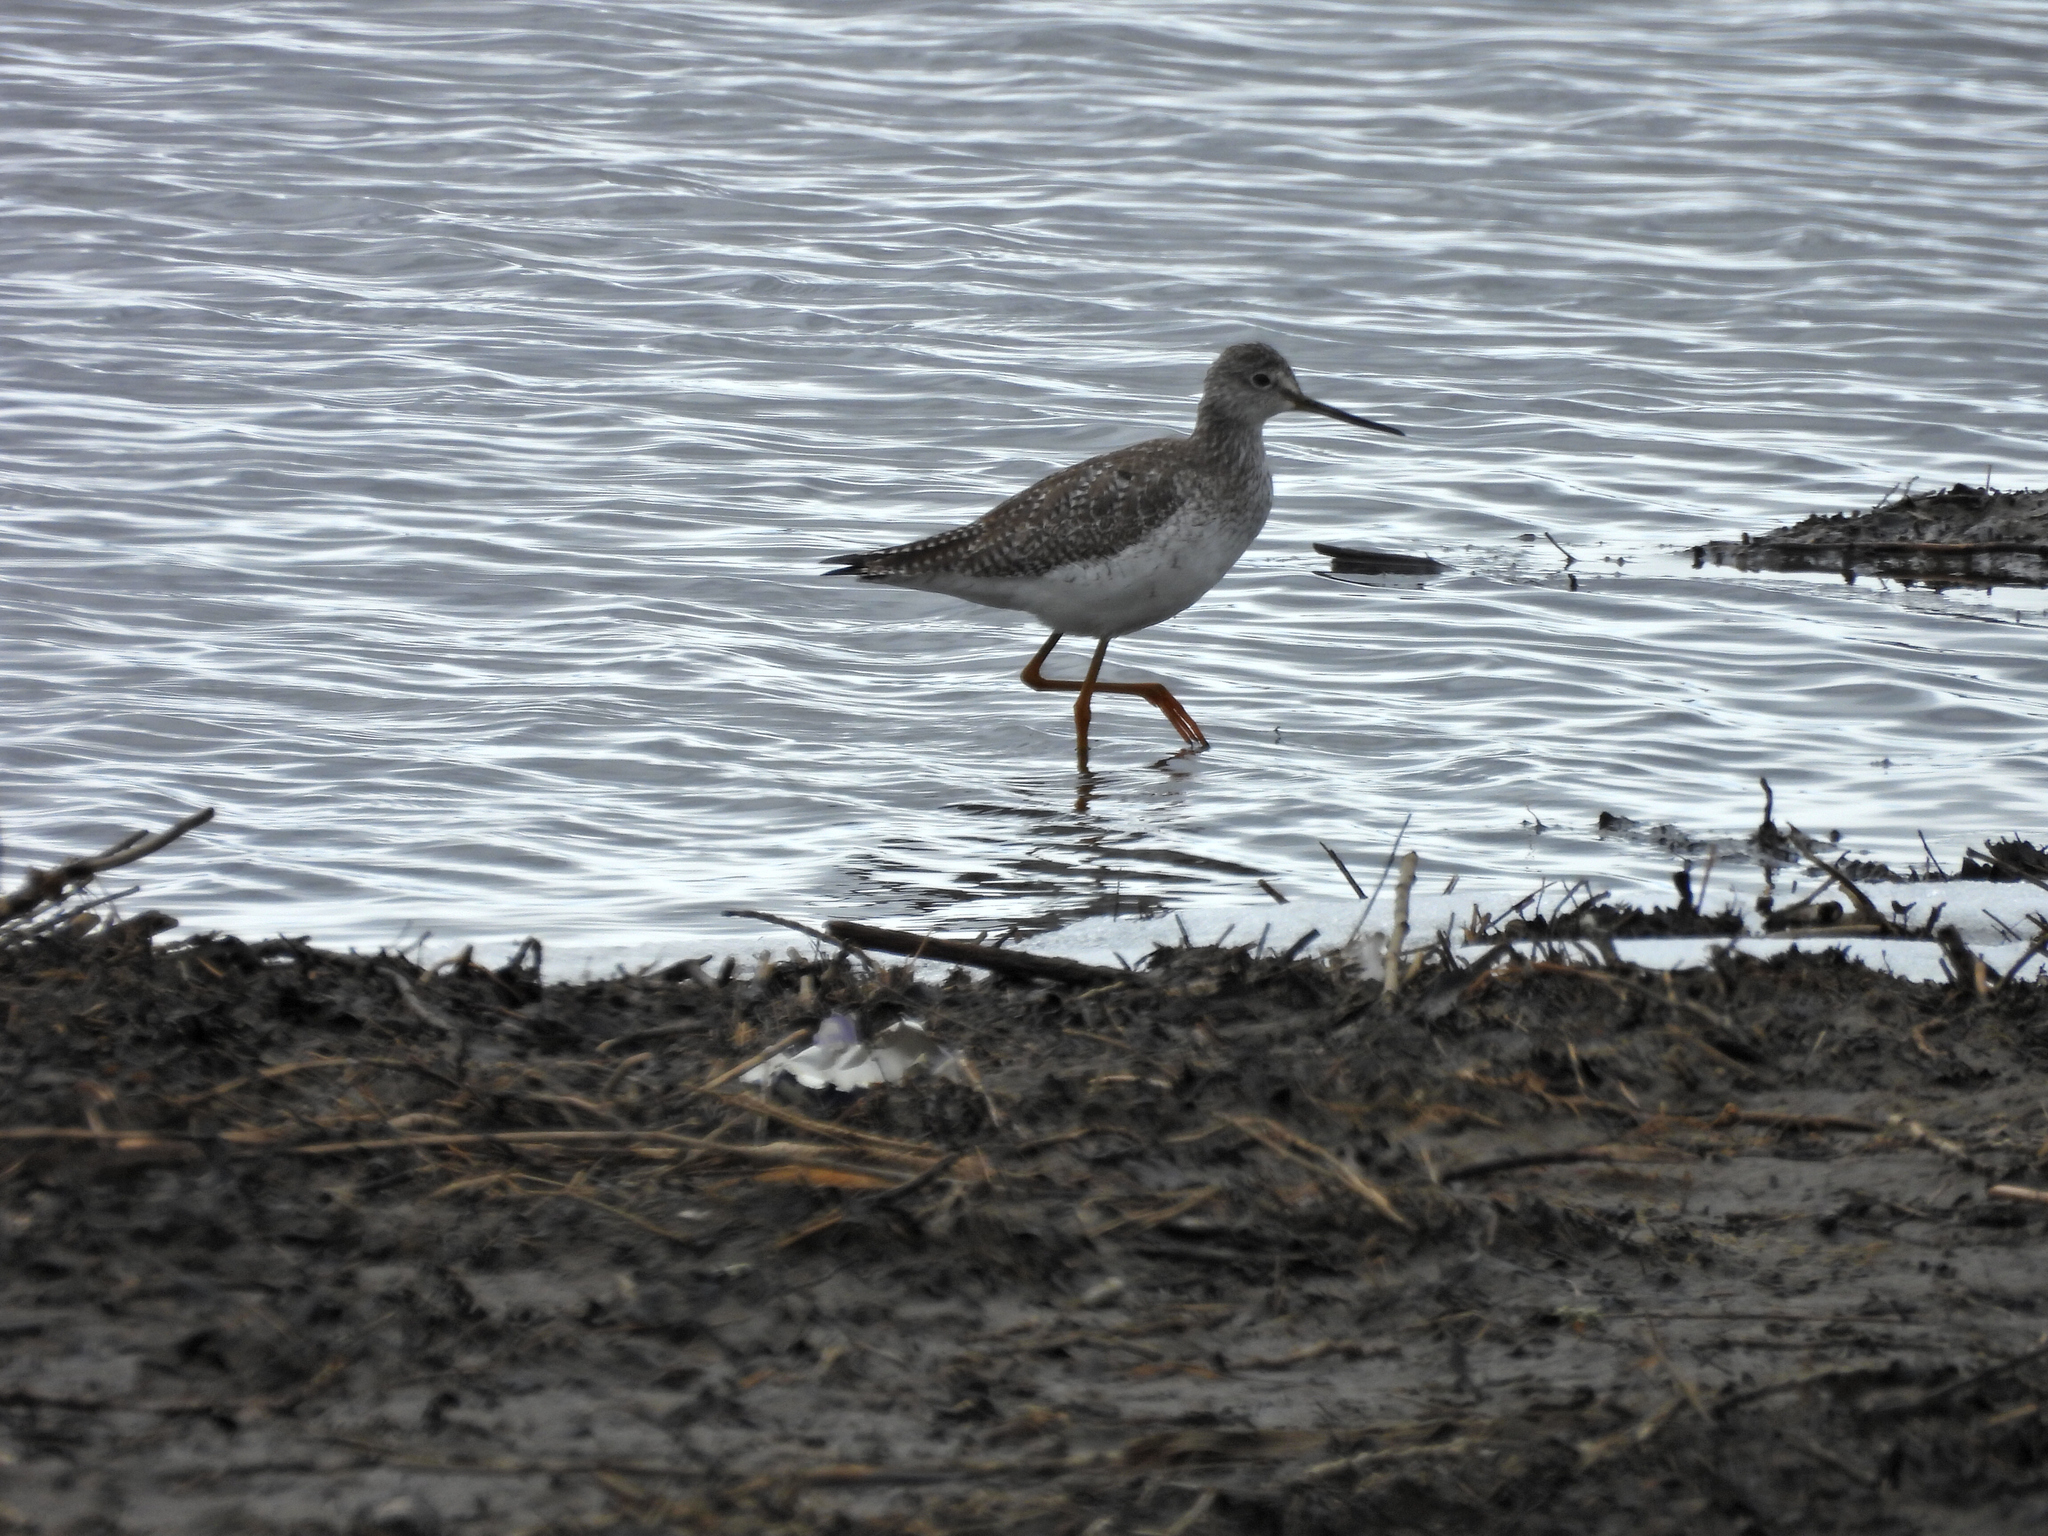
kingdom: Animalia
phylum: Chordata
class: Aves
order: Charadriiformes
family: Scolopacidae
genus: Tringa
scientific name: Tringa melanoleuca
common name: Greater yellowlegs
